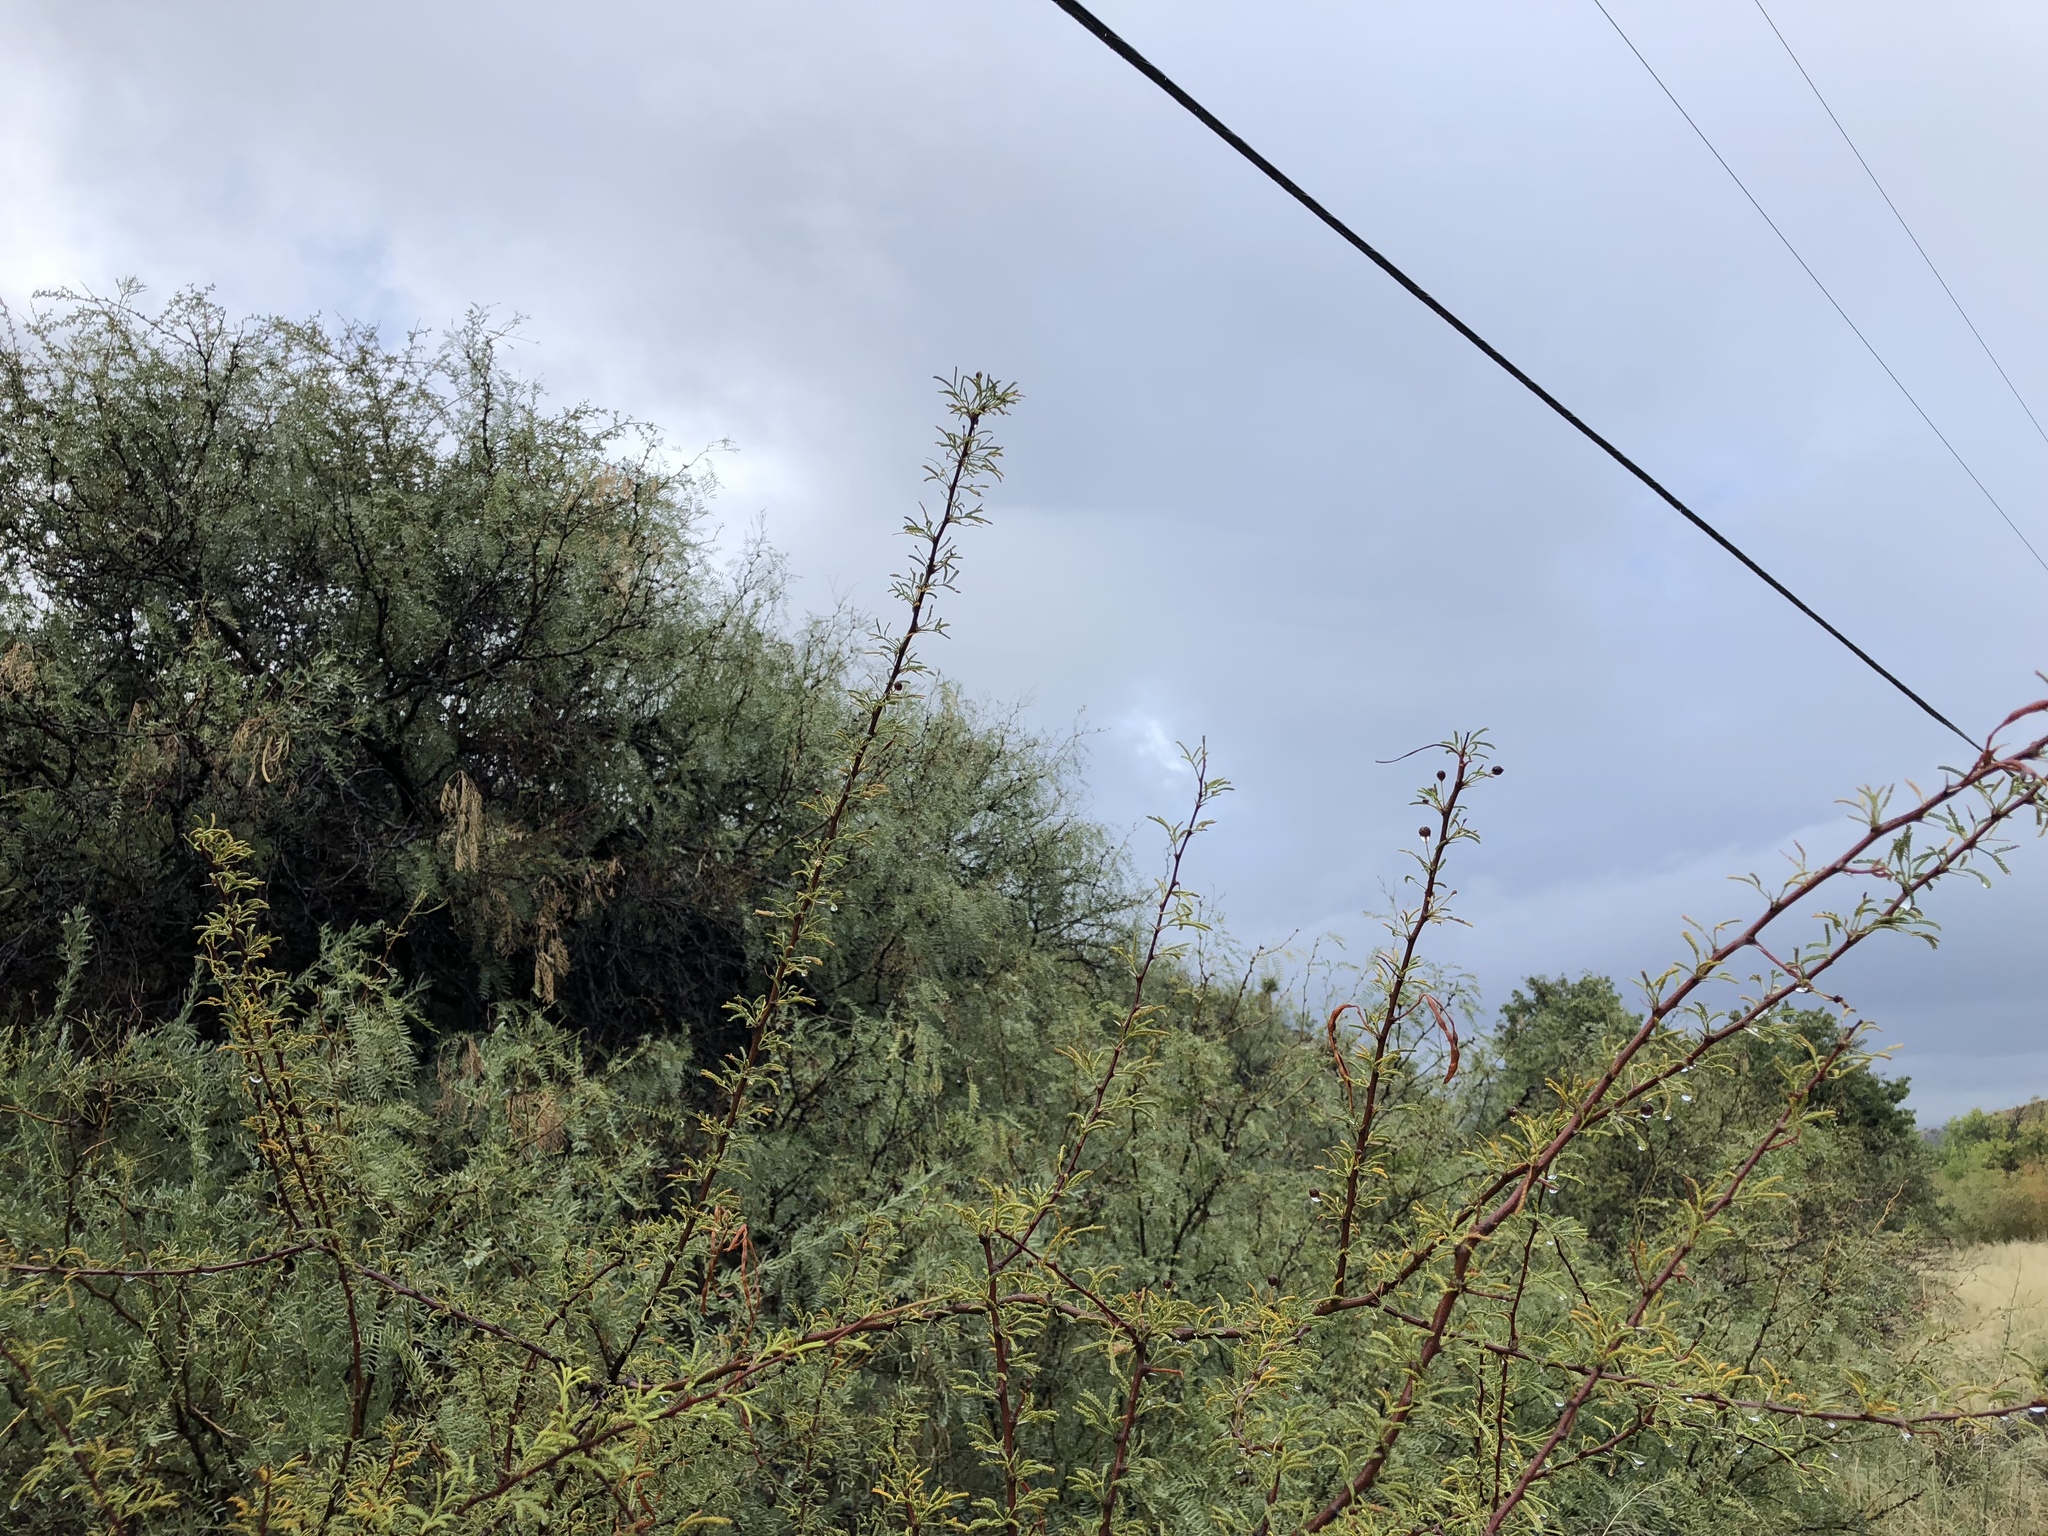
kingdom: Plantae
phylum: Tracheophyta
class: Magnoliopsida
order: Fabales
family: Fabaceae
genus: Vachellia
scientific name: Vachellia vernicosa
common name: Viscid acacia
